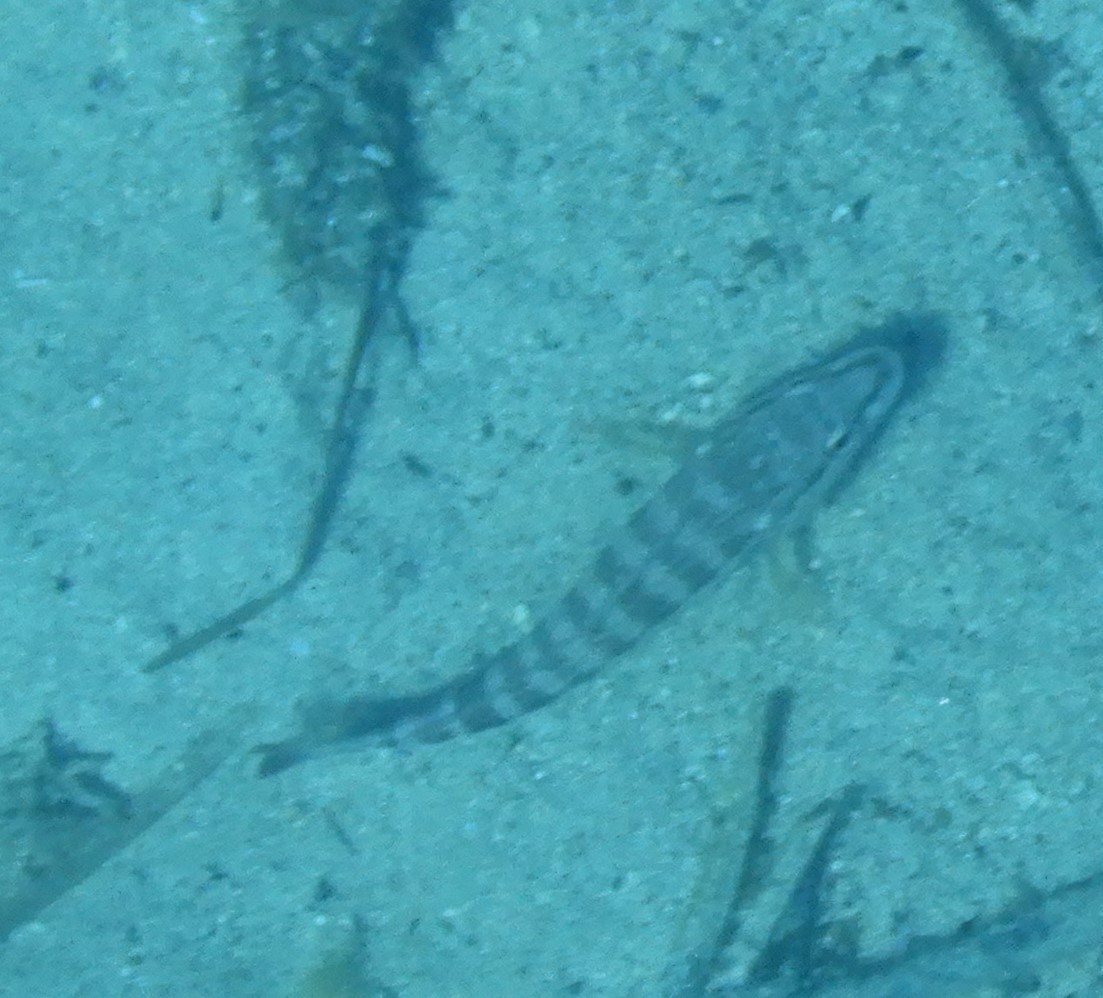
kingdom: Animalia
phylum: Chordata
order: Perciformes
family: Serranidae
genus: Serranus
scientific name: Serranus cabrilla
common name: Comber
